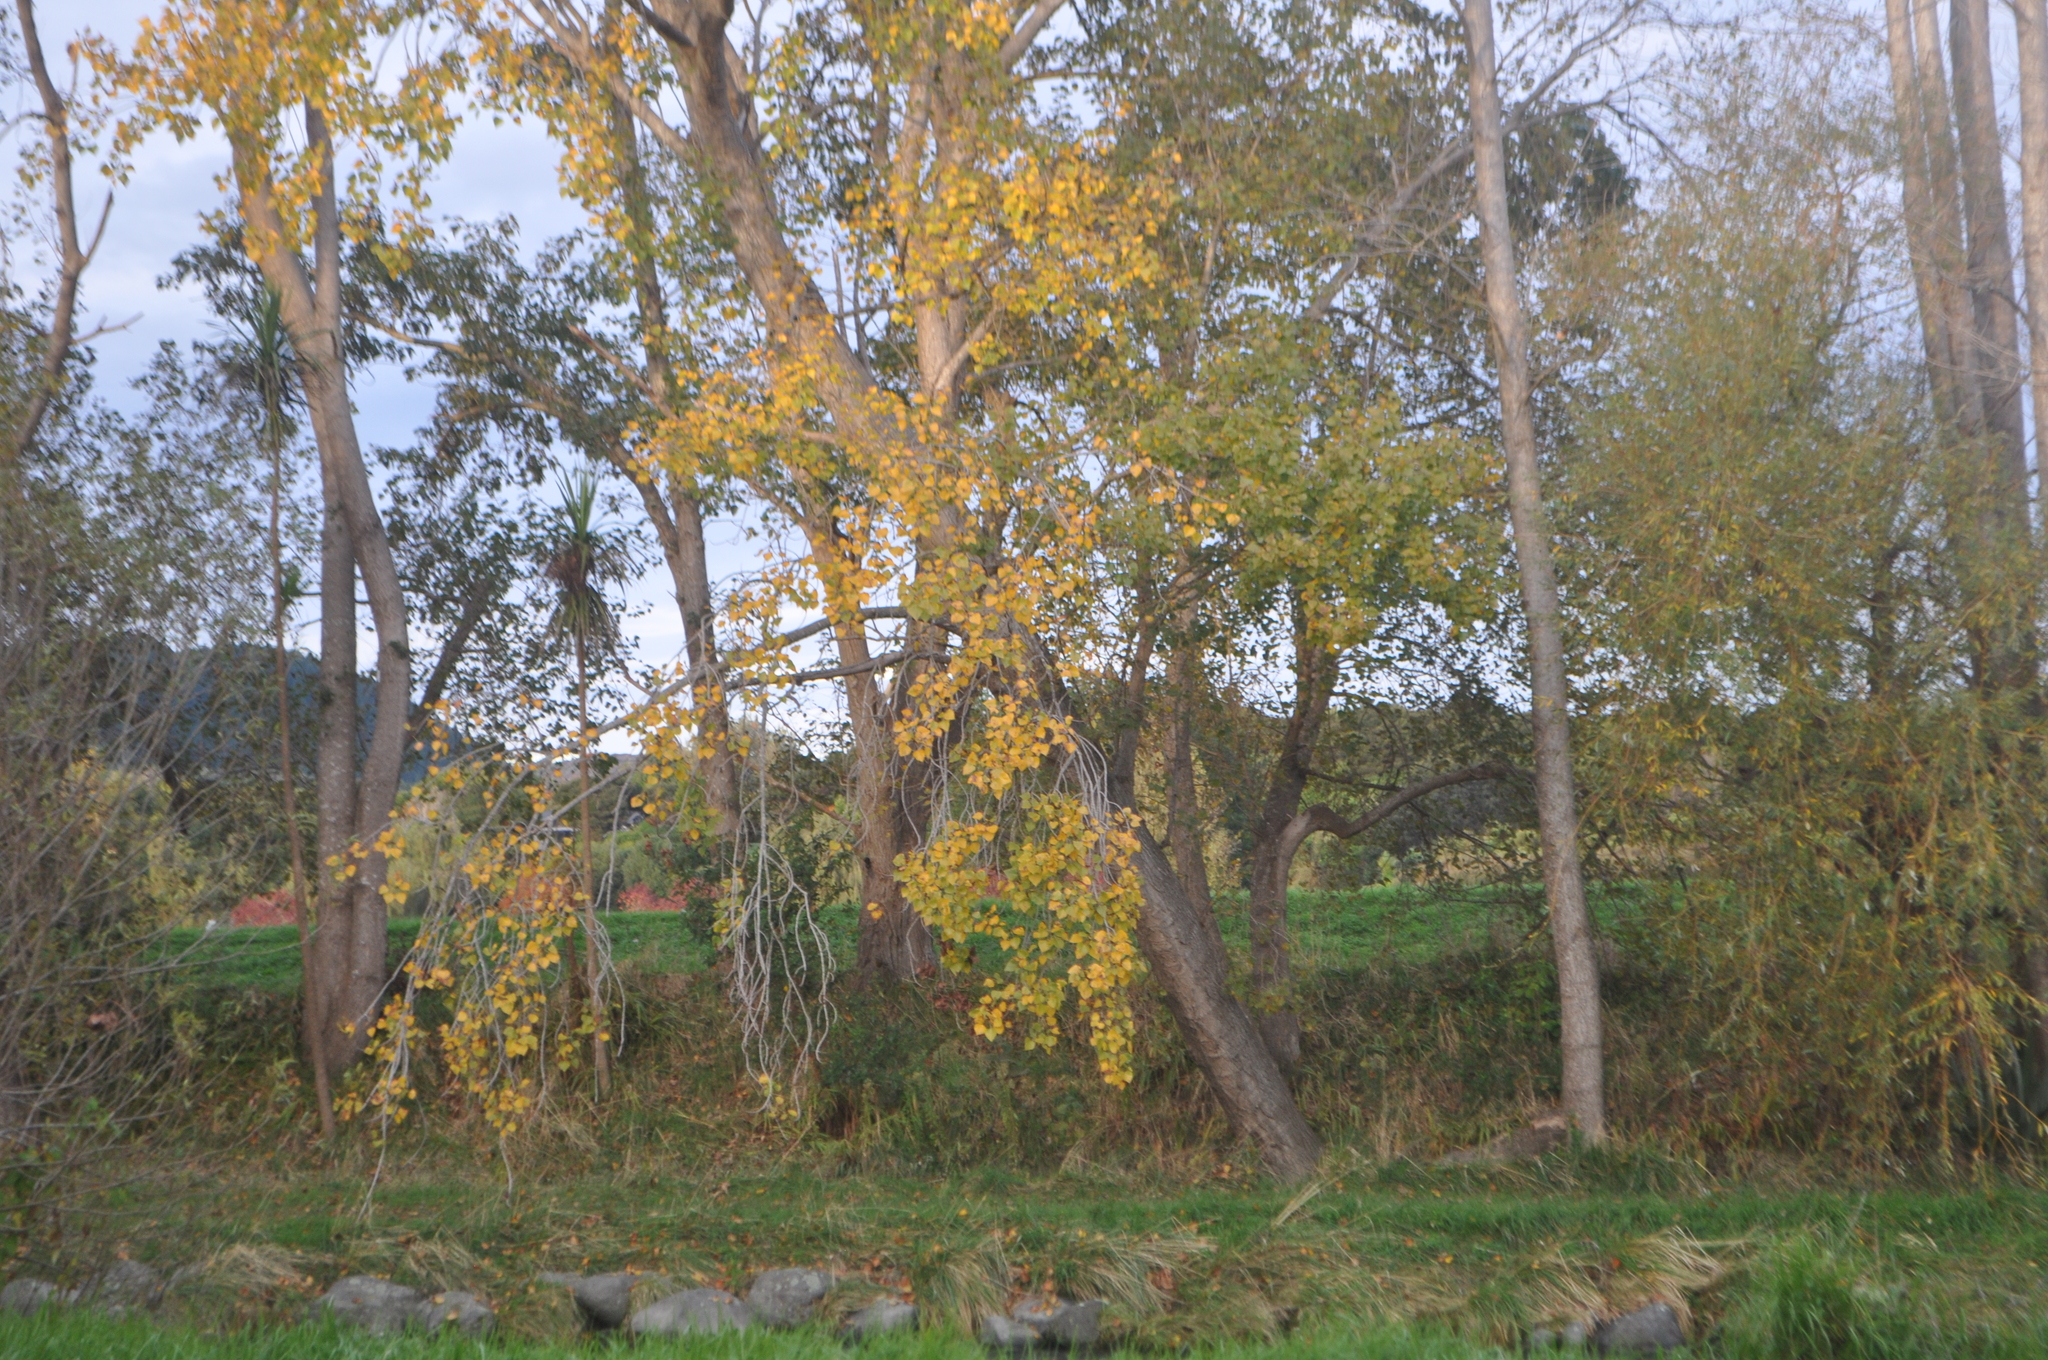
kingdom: Plantae
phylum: Tracheophyta
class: Magnoliopsida
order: Malpighiales
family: Salicaceae
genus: Populus
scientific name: Populus nigra
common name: Black poplar
